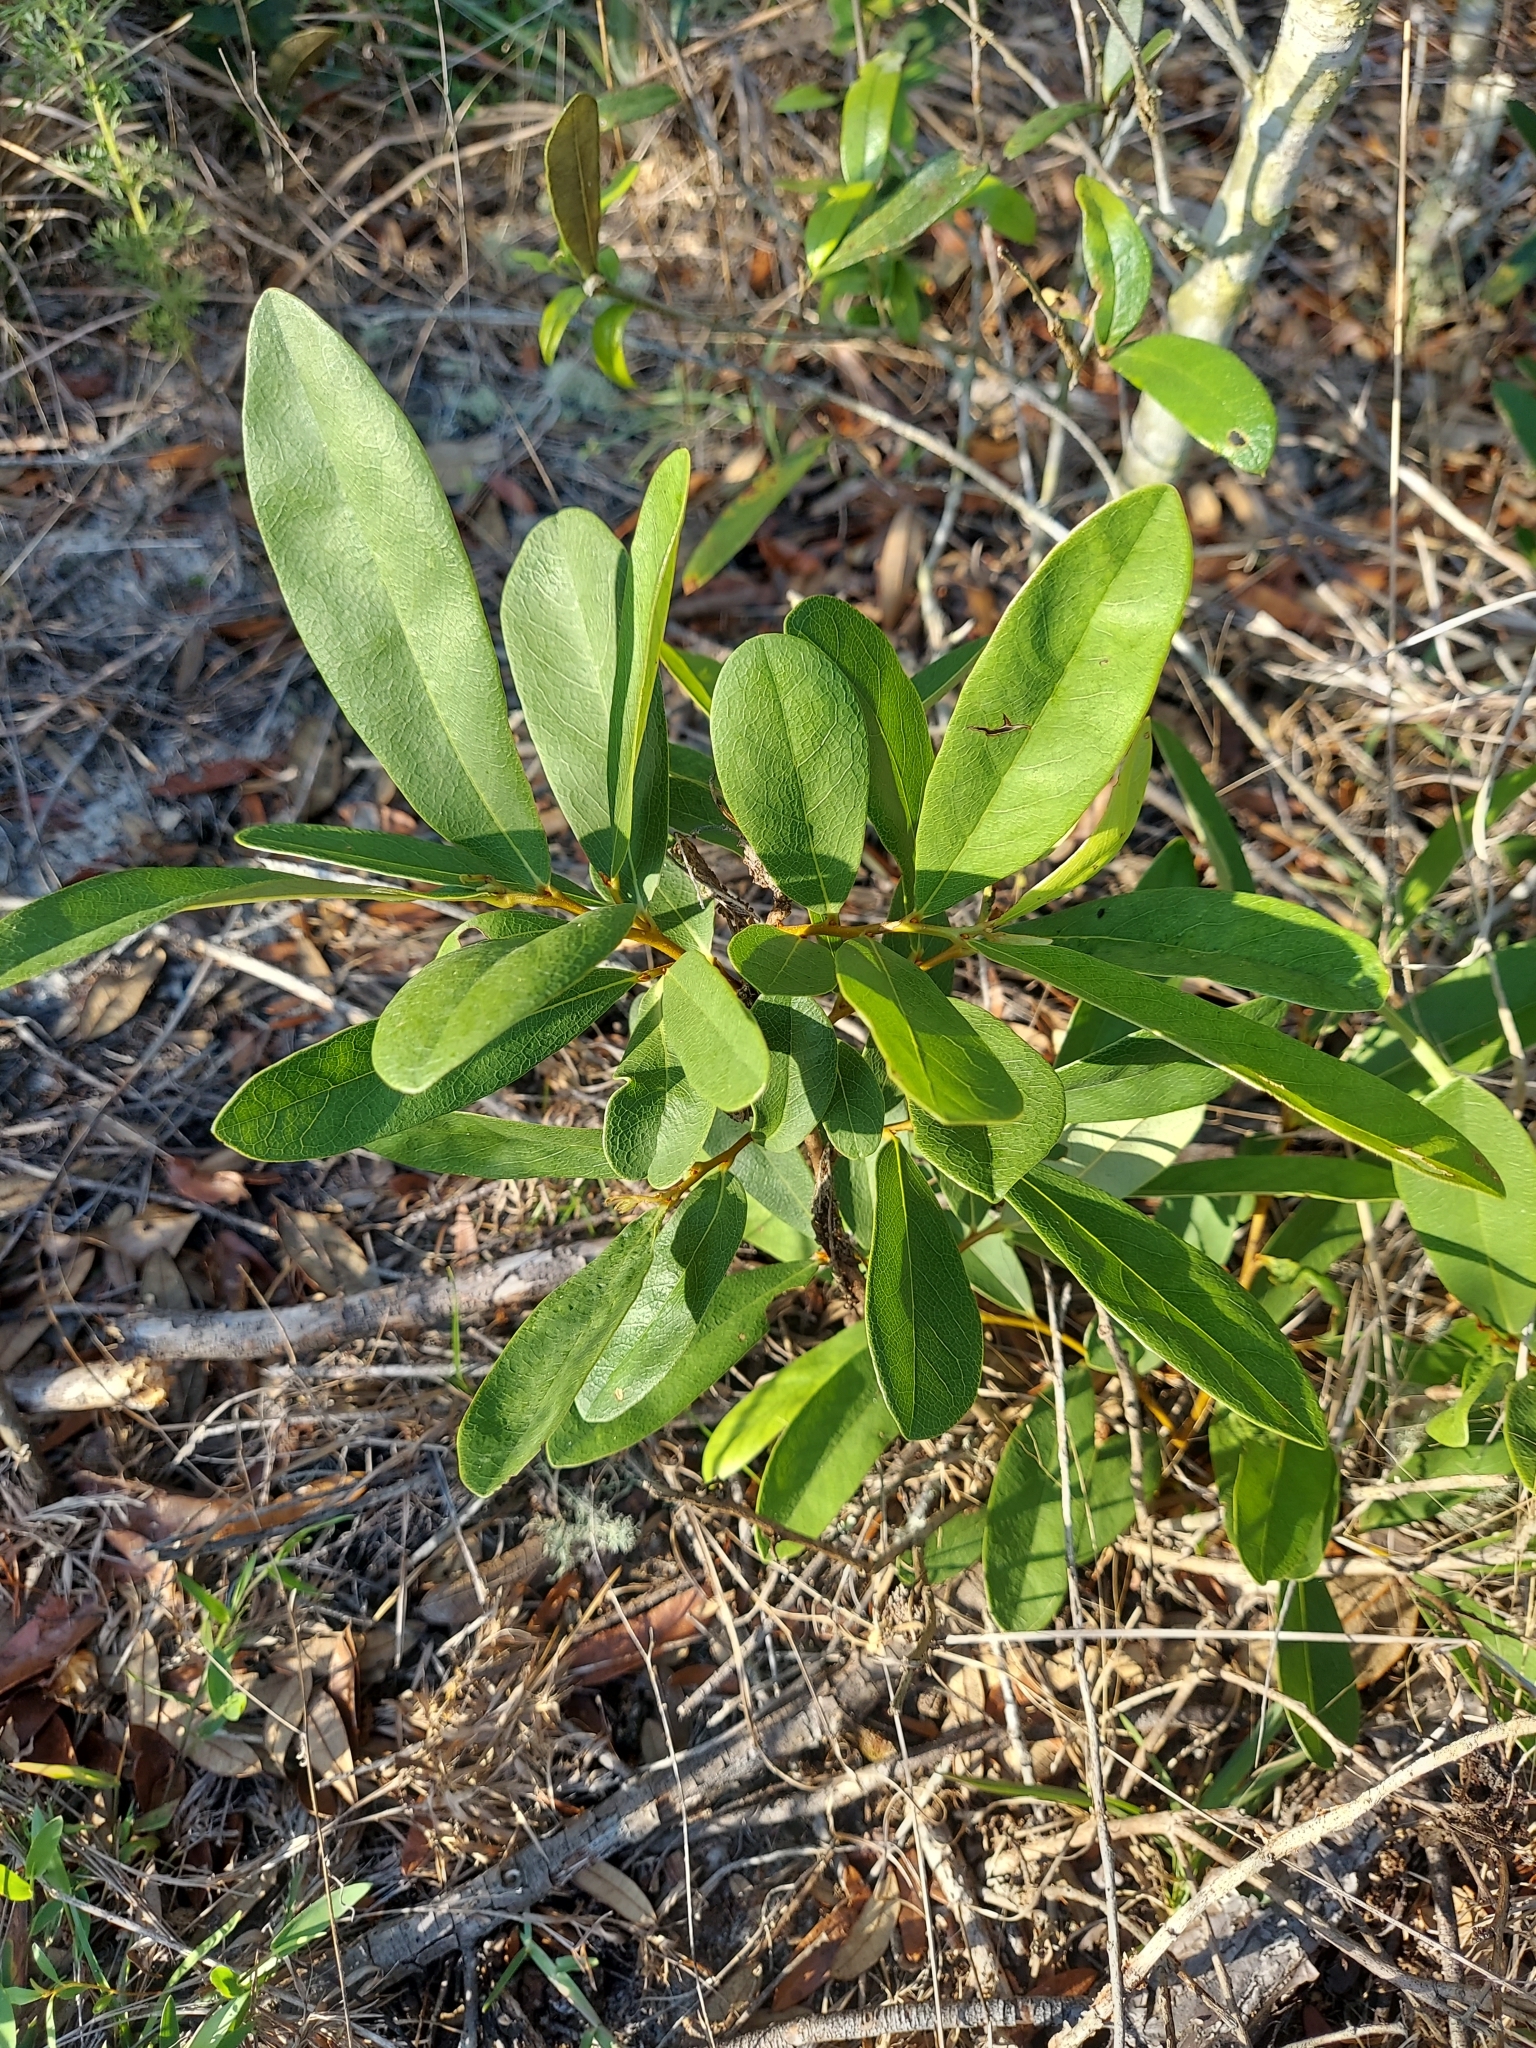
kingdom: Plantae
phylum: Tracheophyta
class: Magnoliopsida
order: Magnoliales
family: Annonaceae
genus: Asimina
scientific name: Asimina pygmaea
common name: Dwarf pawpaw
